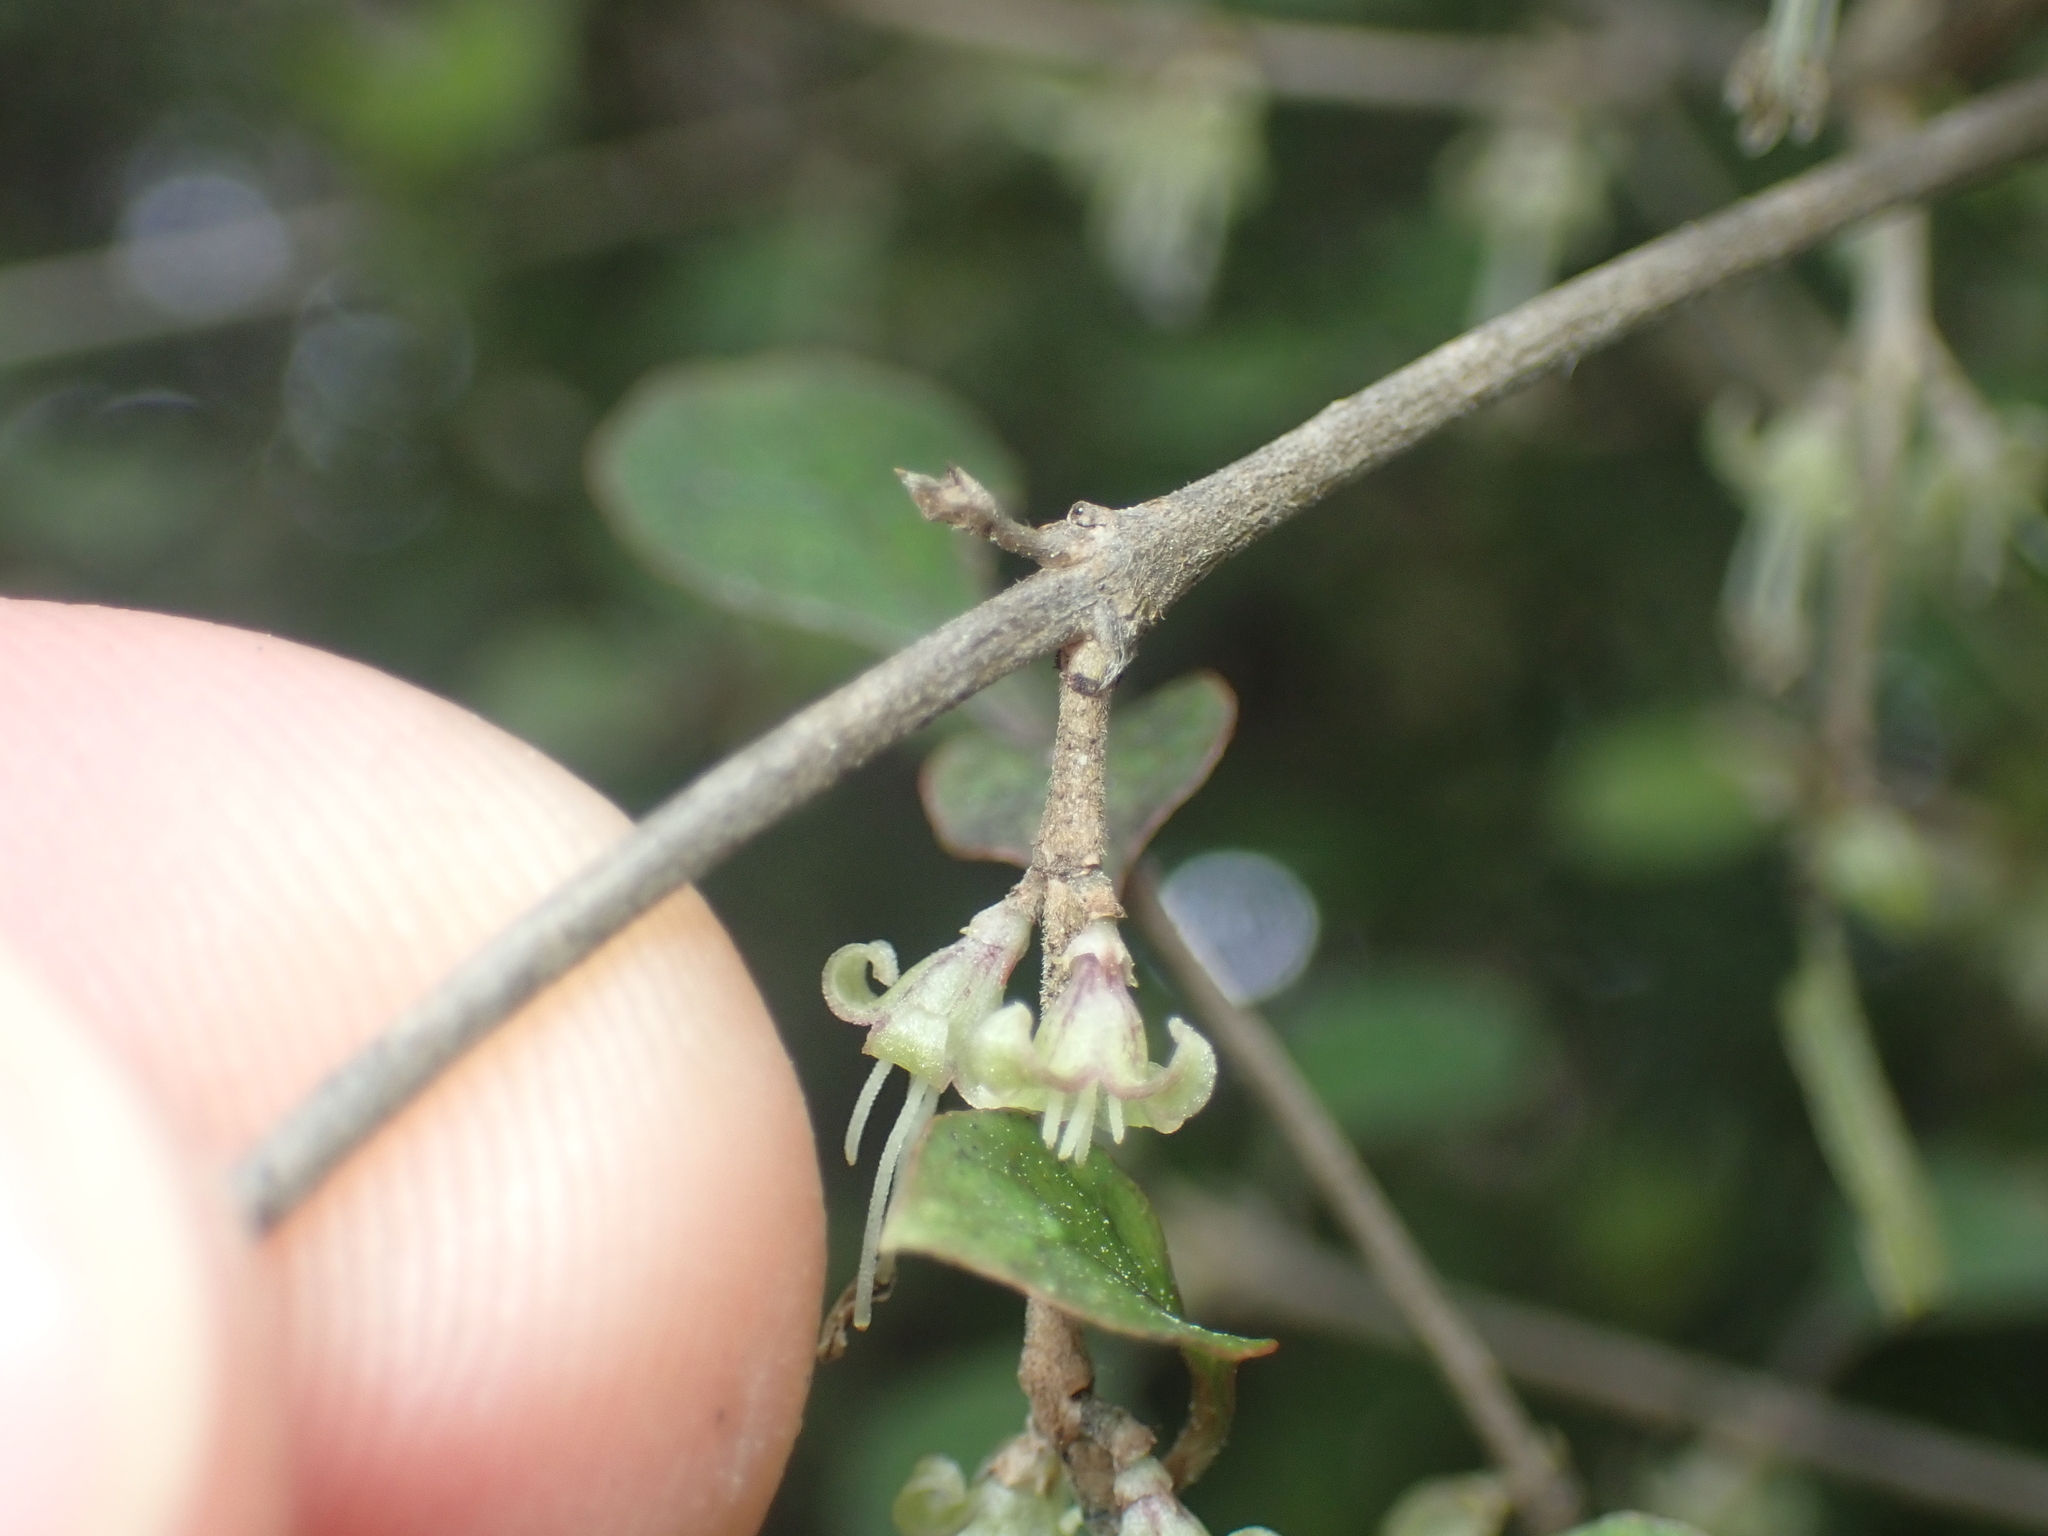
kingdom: Plantae
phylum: Tracheophyta
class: Magnoliopsida
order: Gentianales
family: Rubiaceae
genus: Coprosma
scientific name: Coprosma areolata
